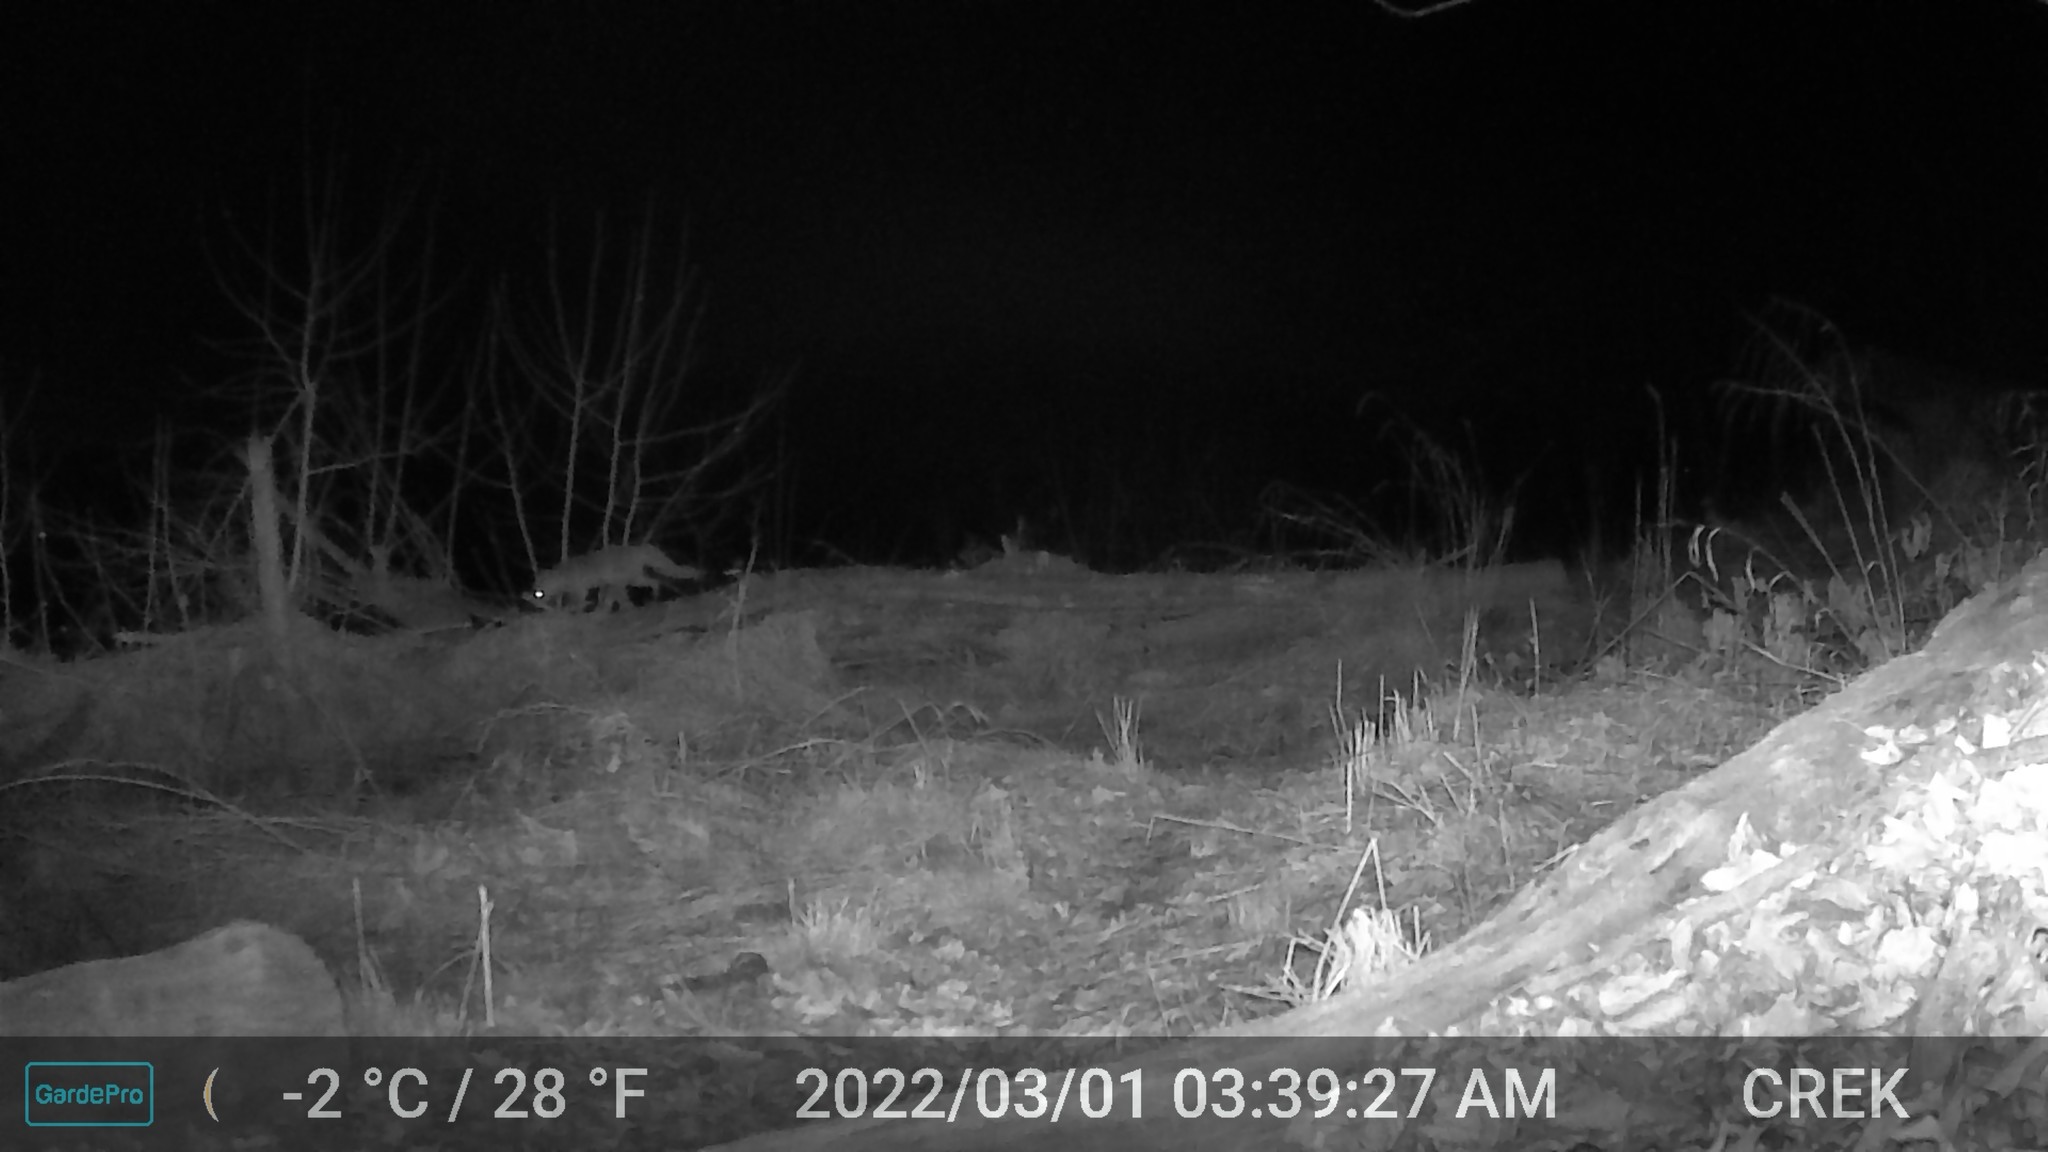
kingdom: Animalia
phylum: Chordata
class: Mammalia
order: Carnivora
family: Canidae
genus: Urocyon
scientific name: Urocyon cinereoargenteus
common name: Gray fox
